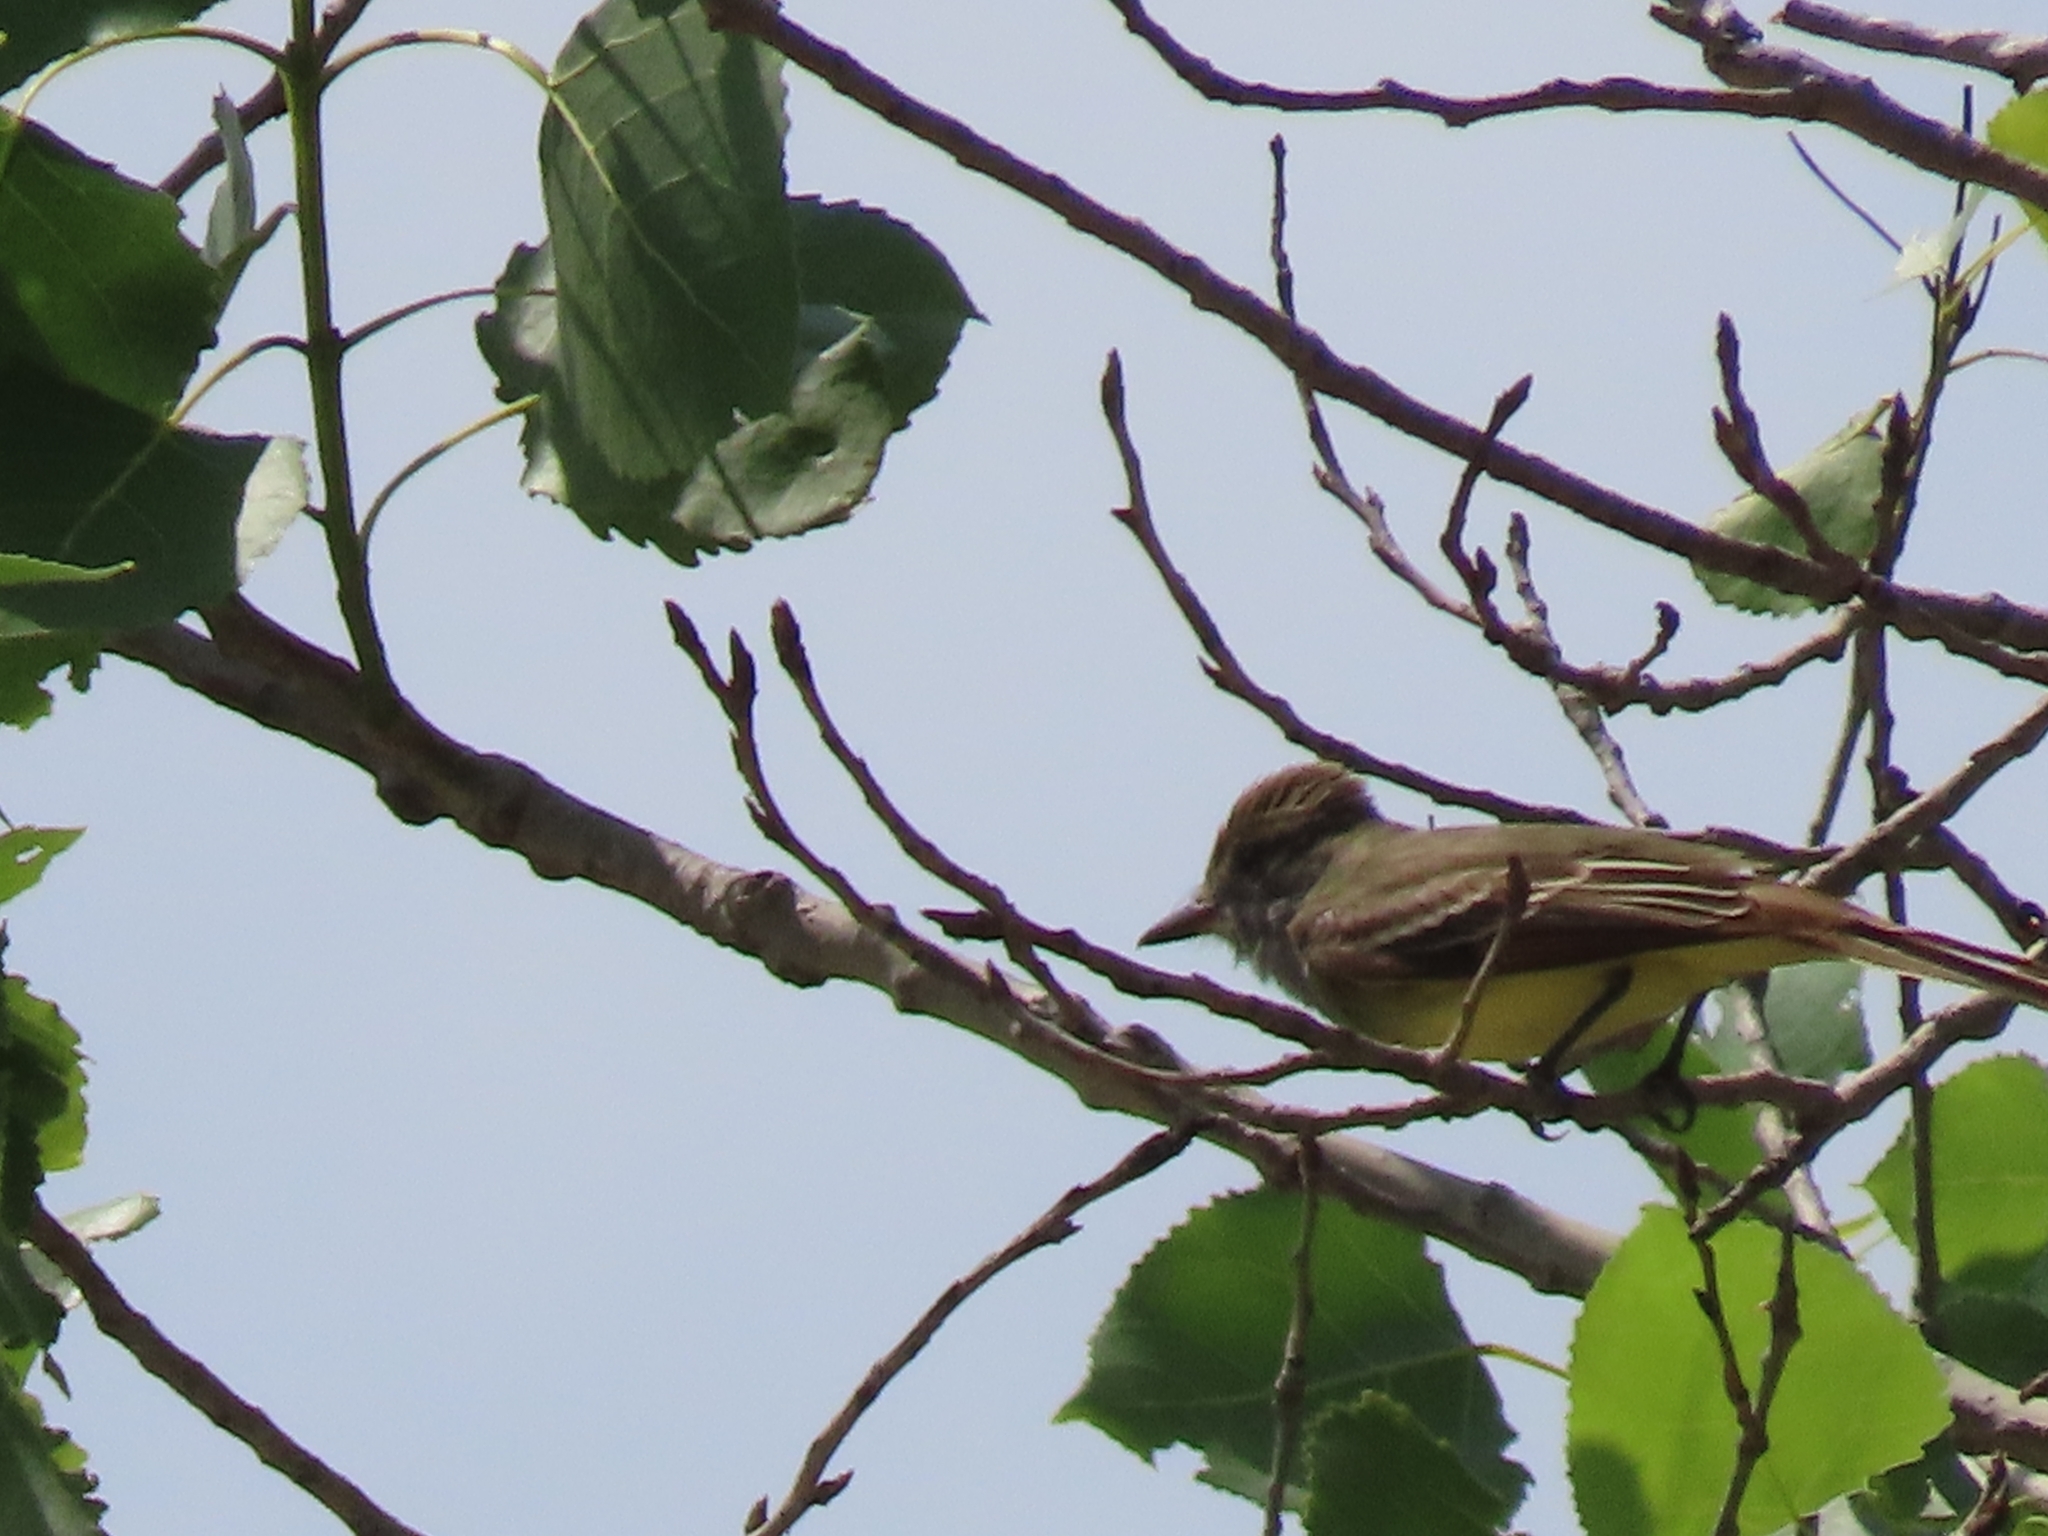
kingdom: Animalia
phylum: Chordata
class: Aves
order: Passeriformes
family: Tyrannidae
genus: Myiarchus
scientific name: Myiarchus crinitus
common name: Great crested flycatcher
